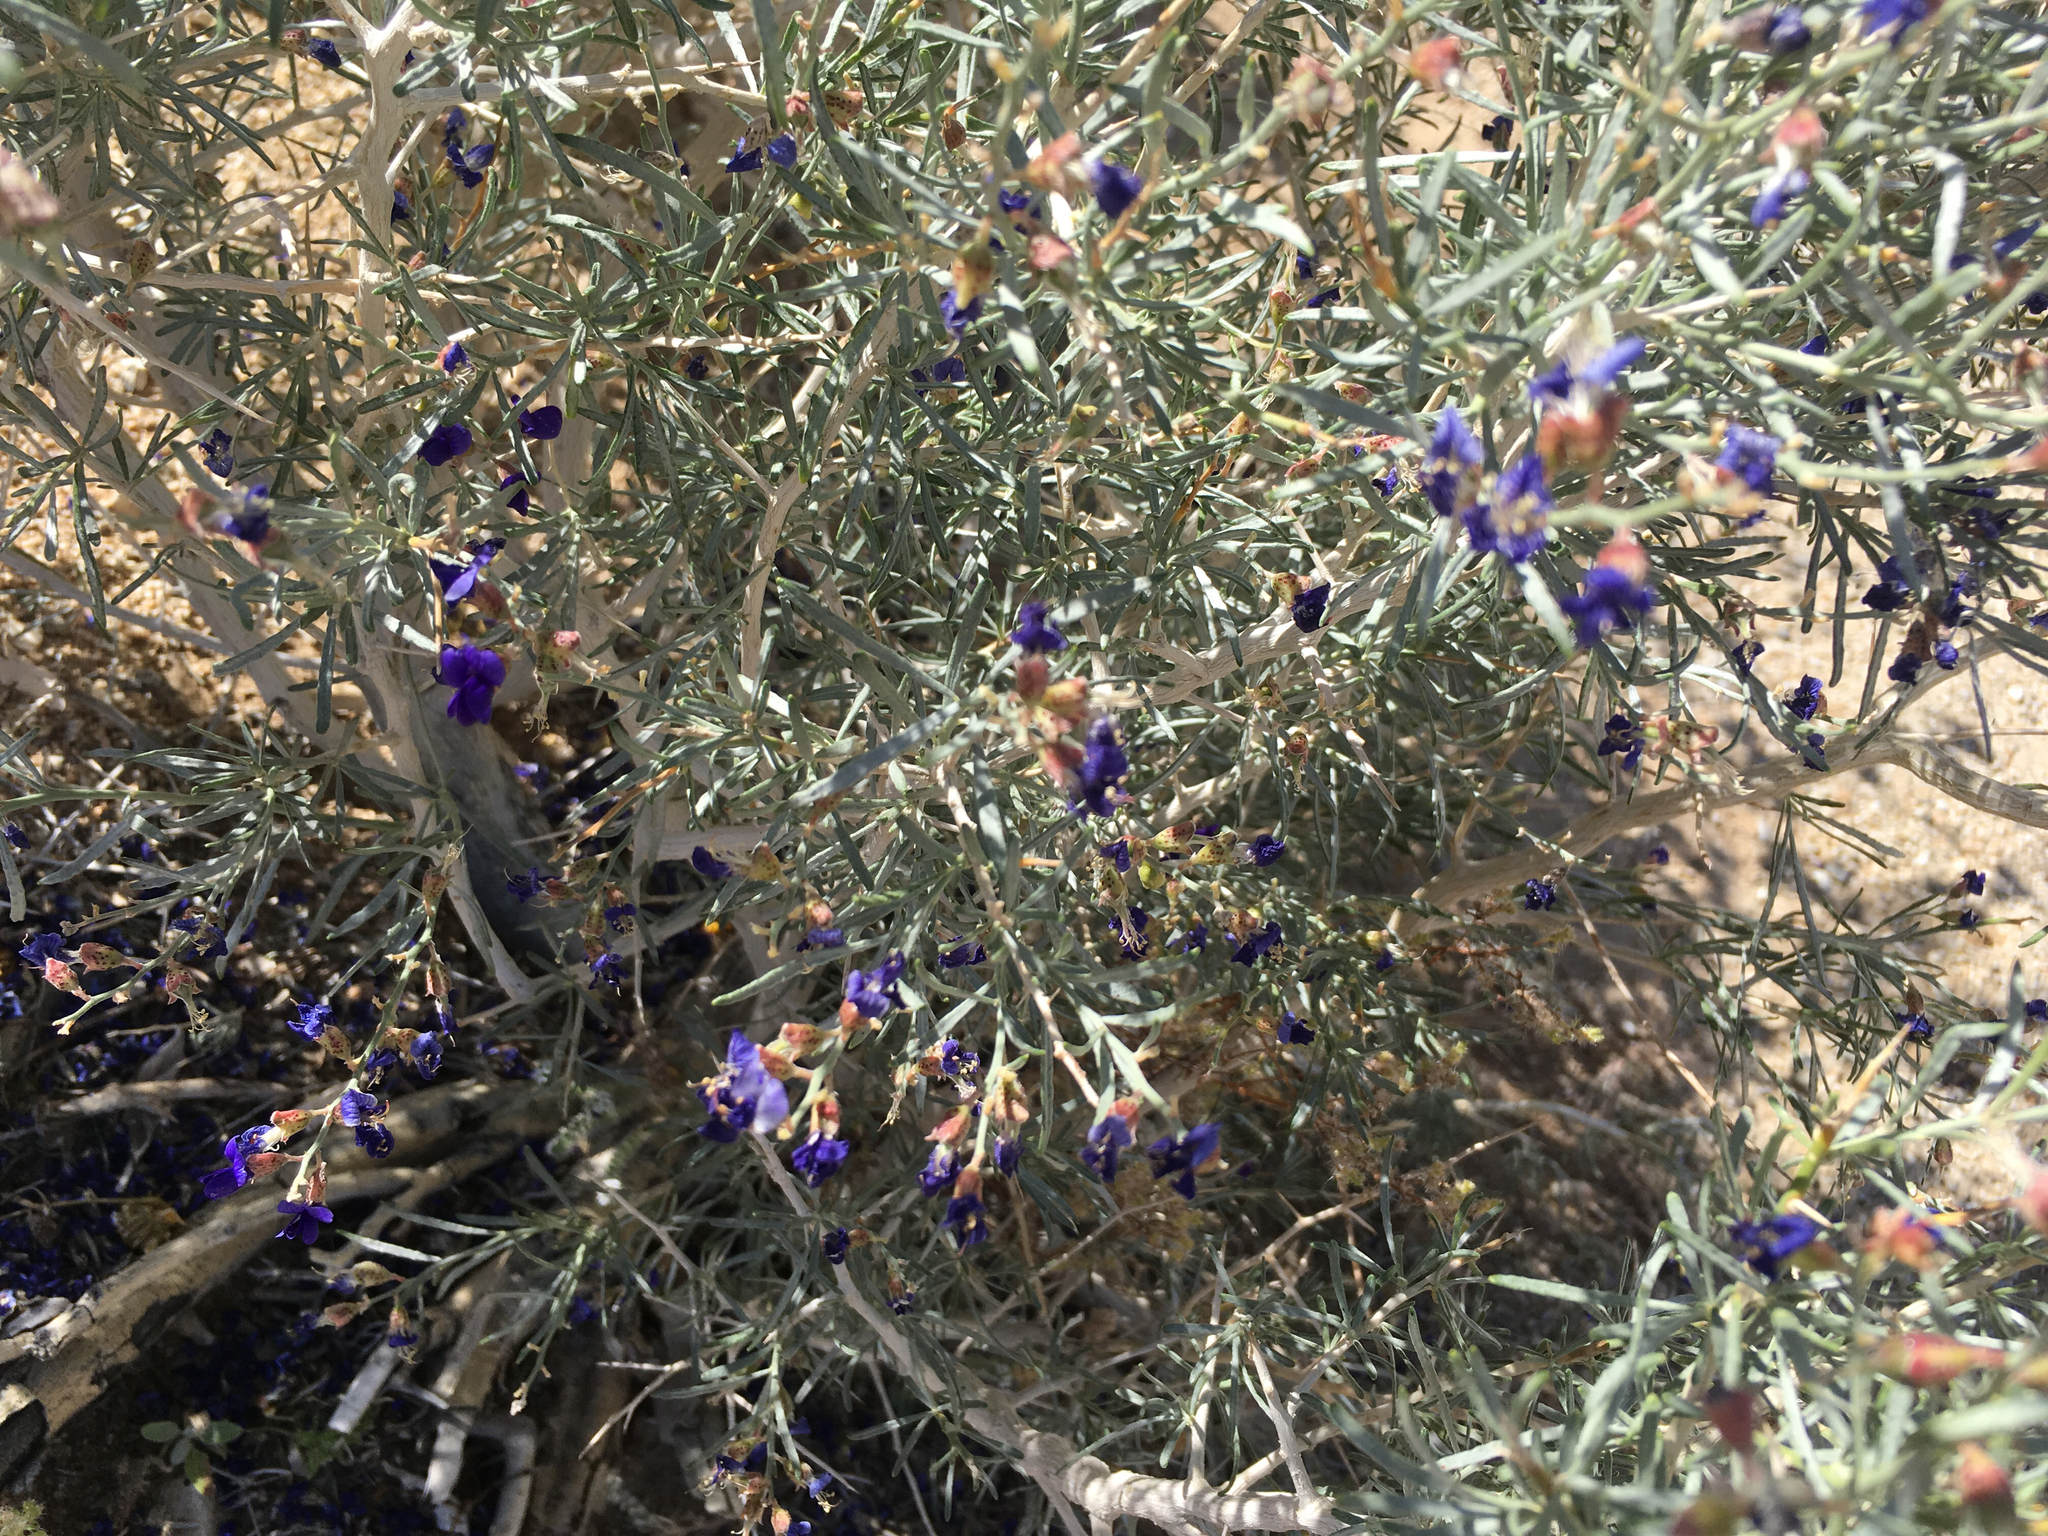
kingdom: Plantae
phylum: Tracheophyta
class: Magnoliopsida
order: Fabales
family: Fabaceae
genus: Psorothamnus
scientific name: Psorothamnus schottii
